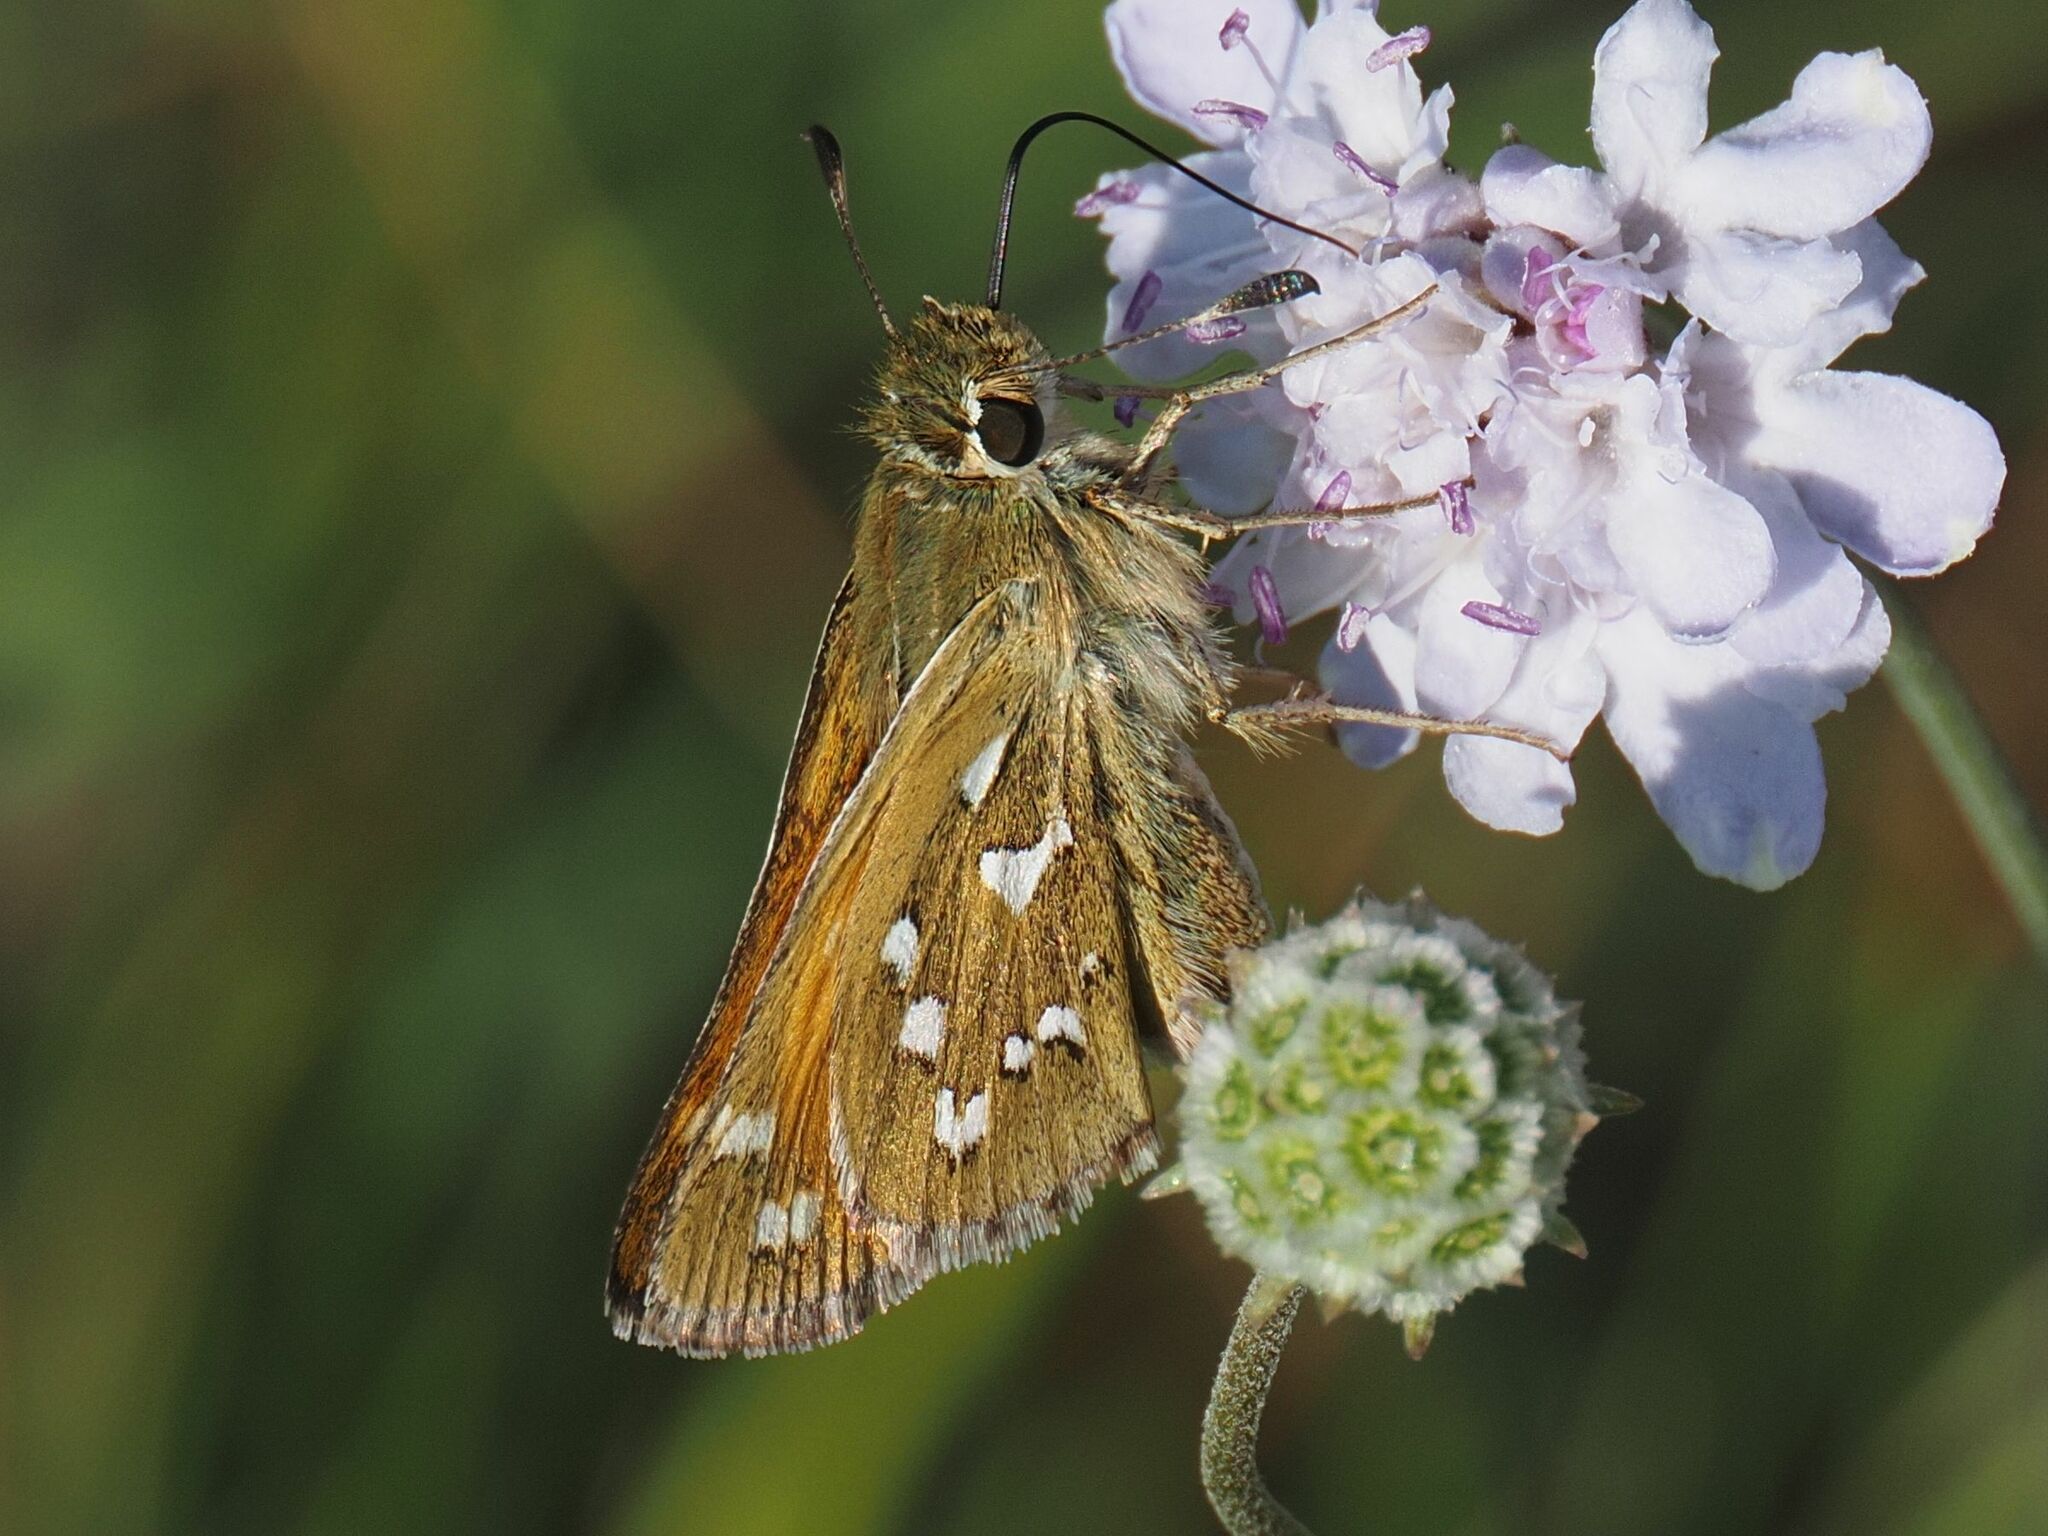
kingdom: Animalia
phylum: Arthropoda
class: Insecta
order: Lepidoptera
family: Hesperiidae
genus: Hesperia
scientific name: Hesperia comma
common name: Common branded skipper
